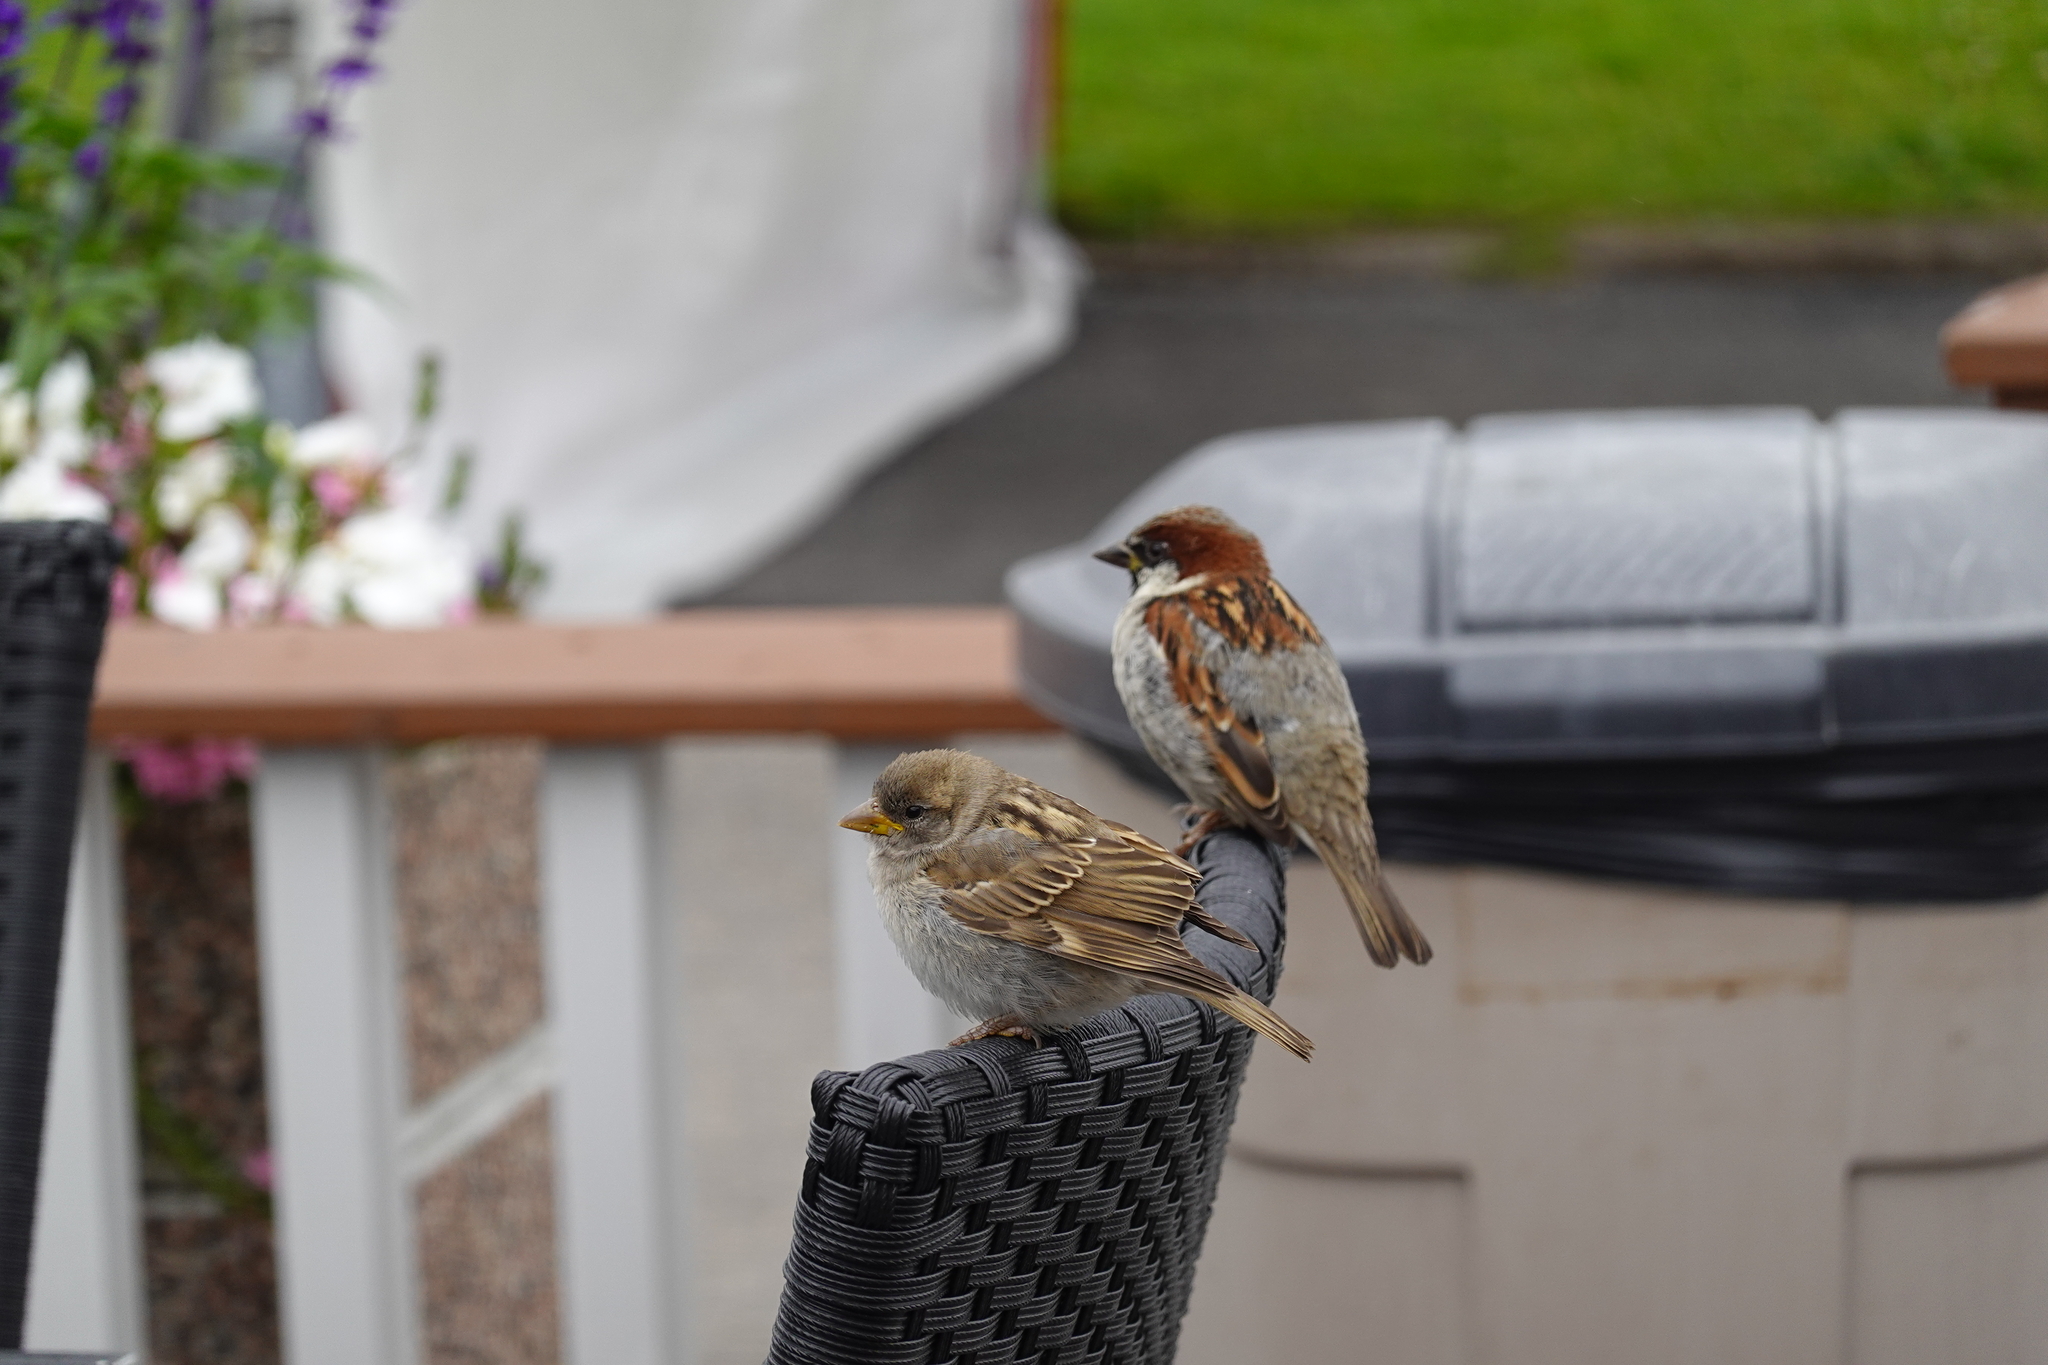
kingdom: Animalia
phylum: Chordata
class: Aves
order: Passeriformes
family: Passeridae
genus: Passer
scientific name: Passer domesticus
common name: House sparrow
